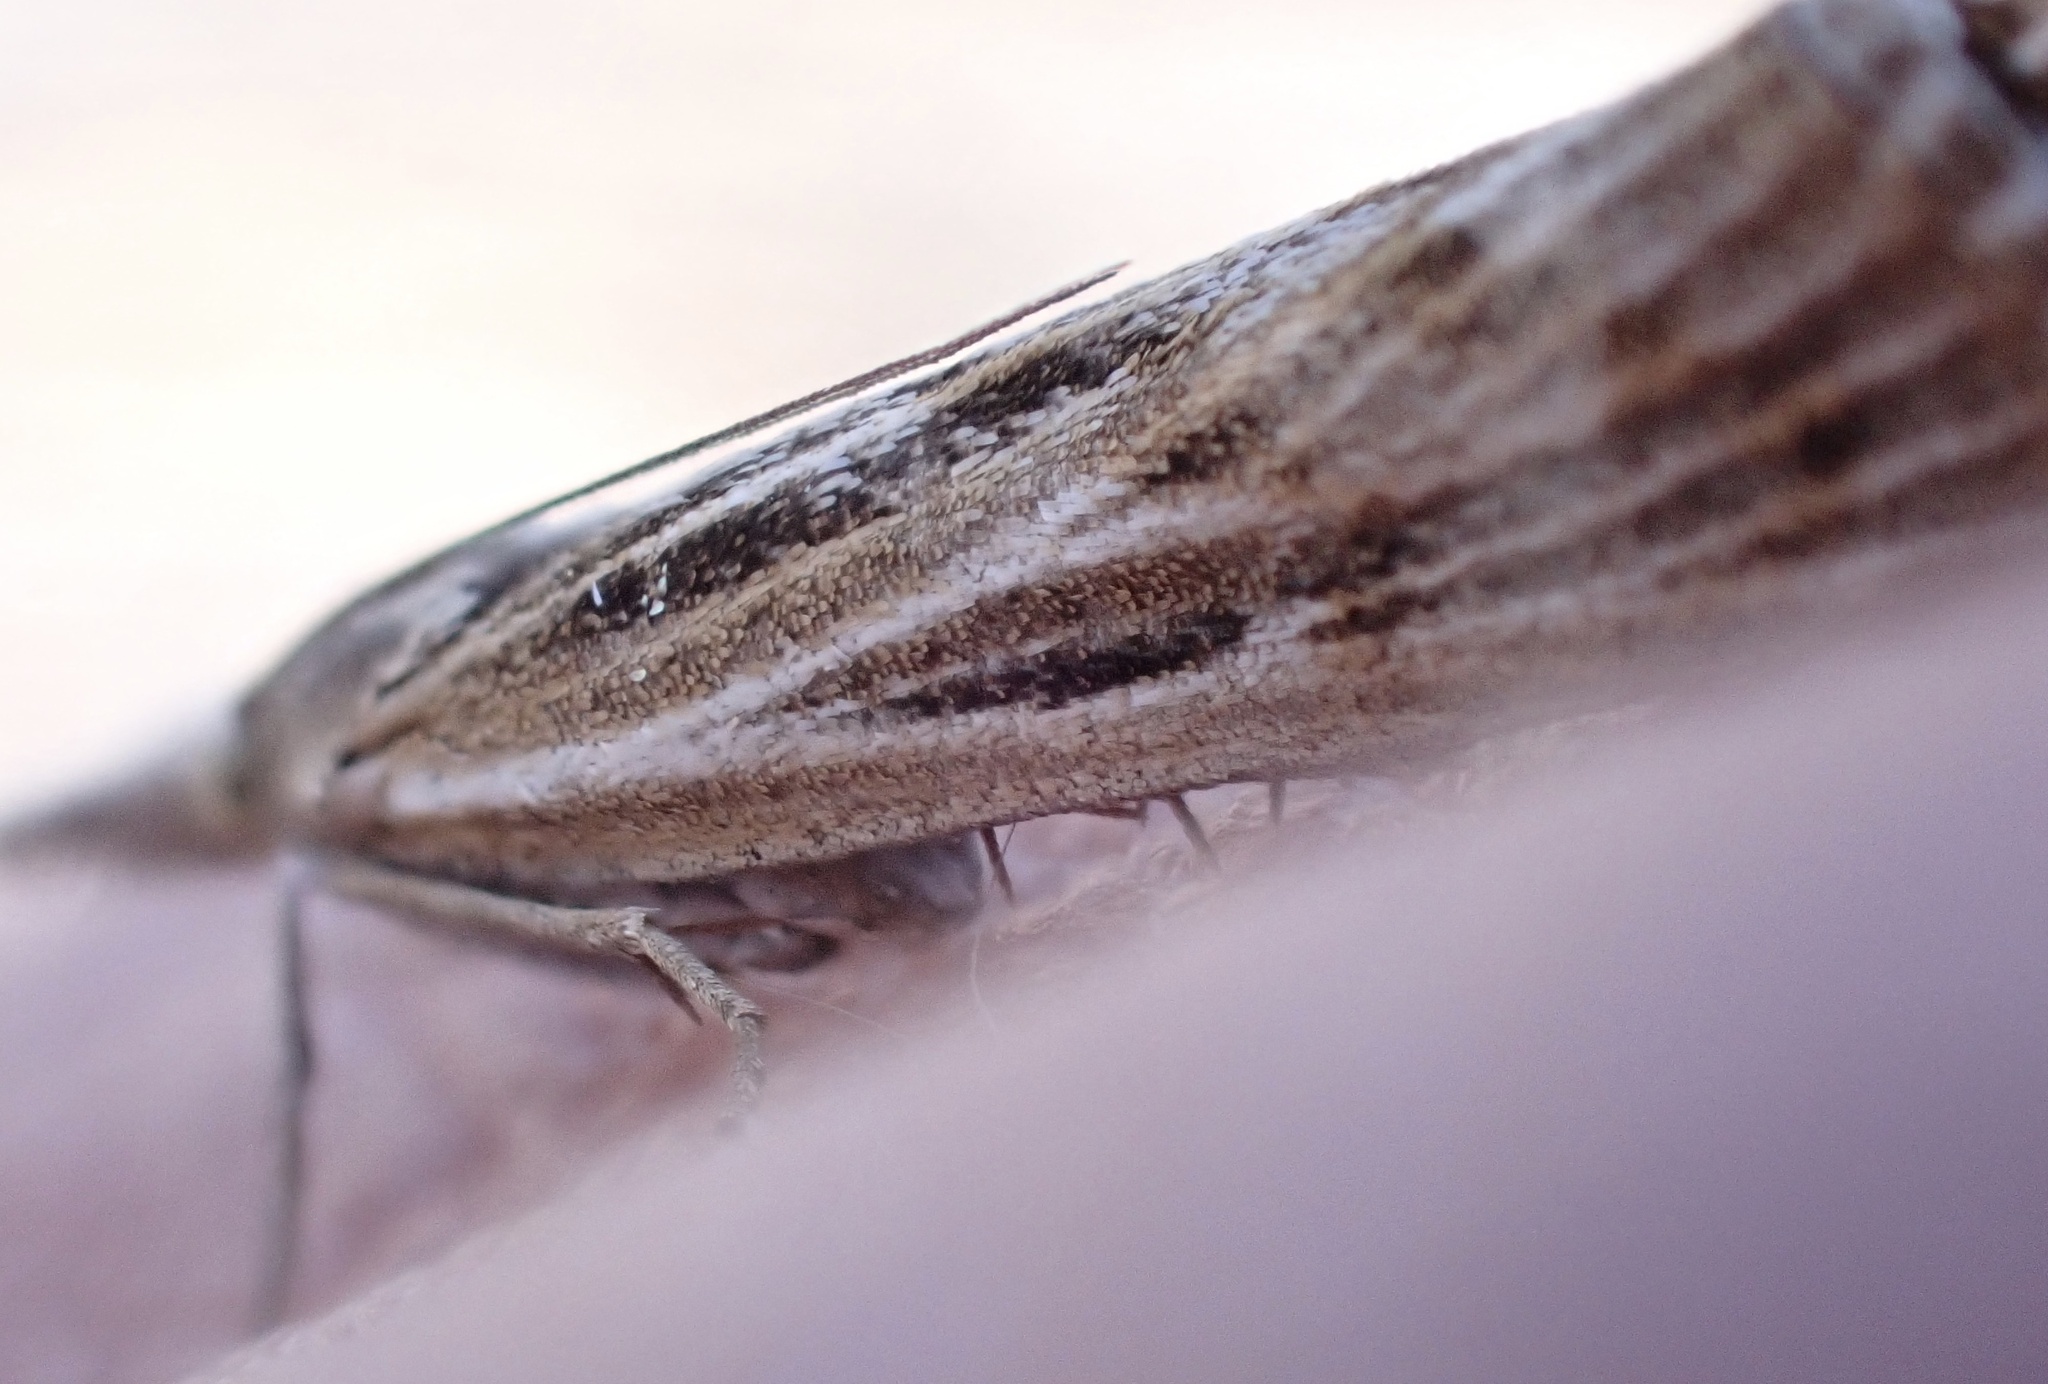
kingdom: Animalia
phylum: Arthropoda
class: Insecta
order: Lepidoptera
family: Crambidae
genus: Pediasia
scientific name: Pediasia fascelinella
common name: Banded grass-veneer
